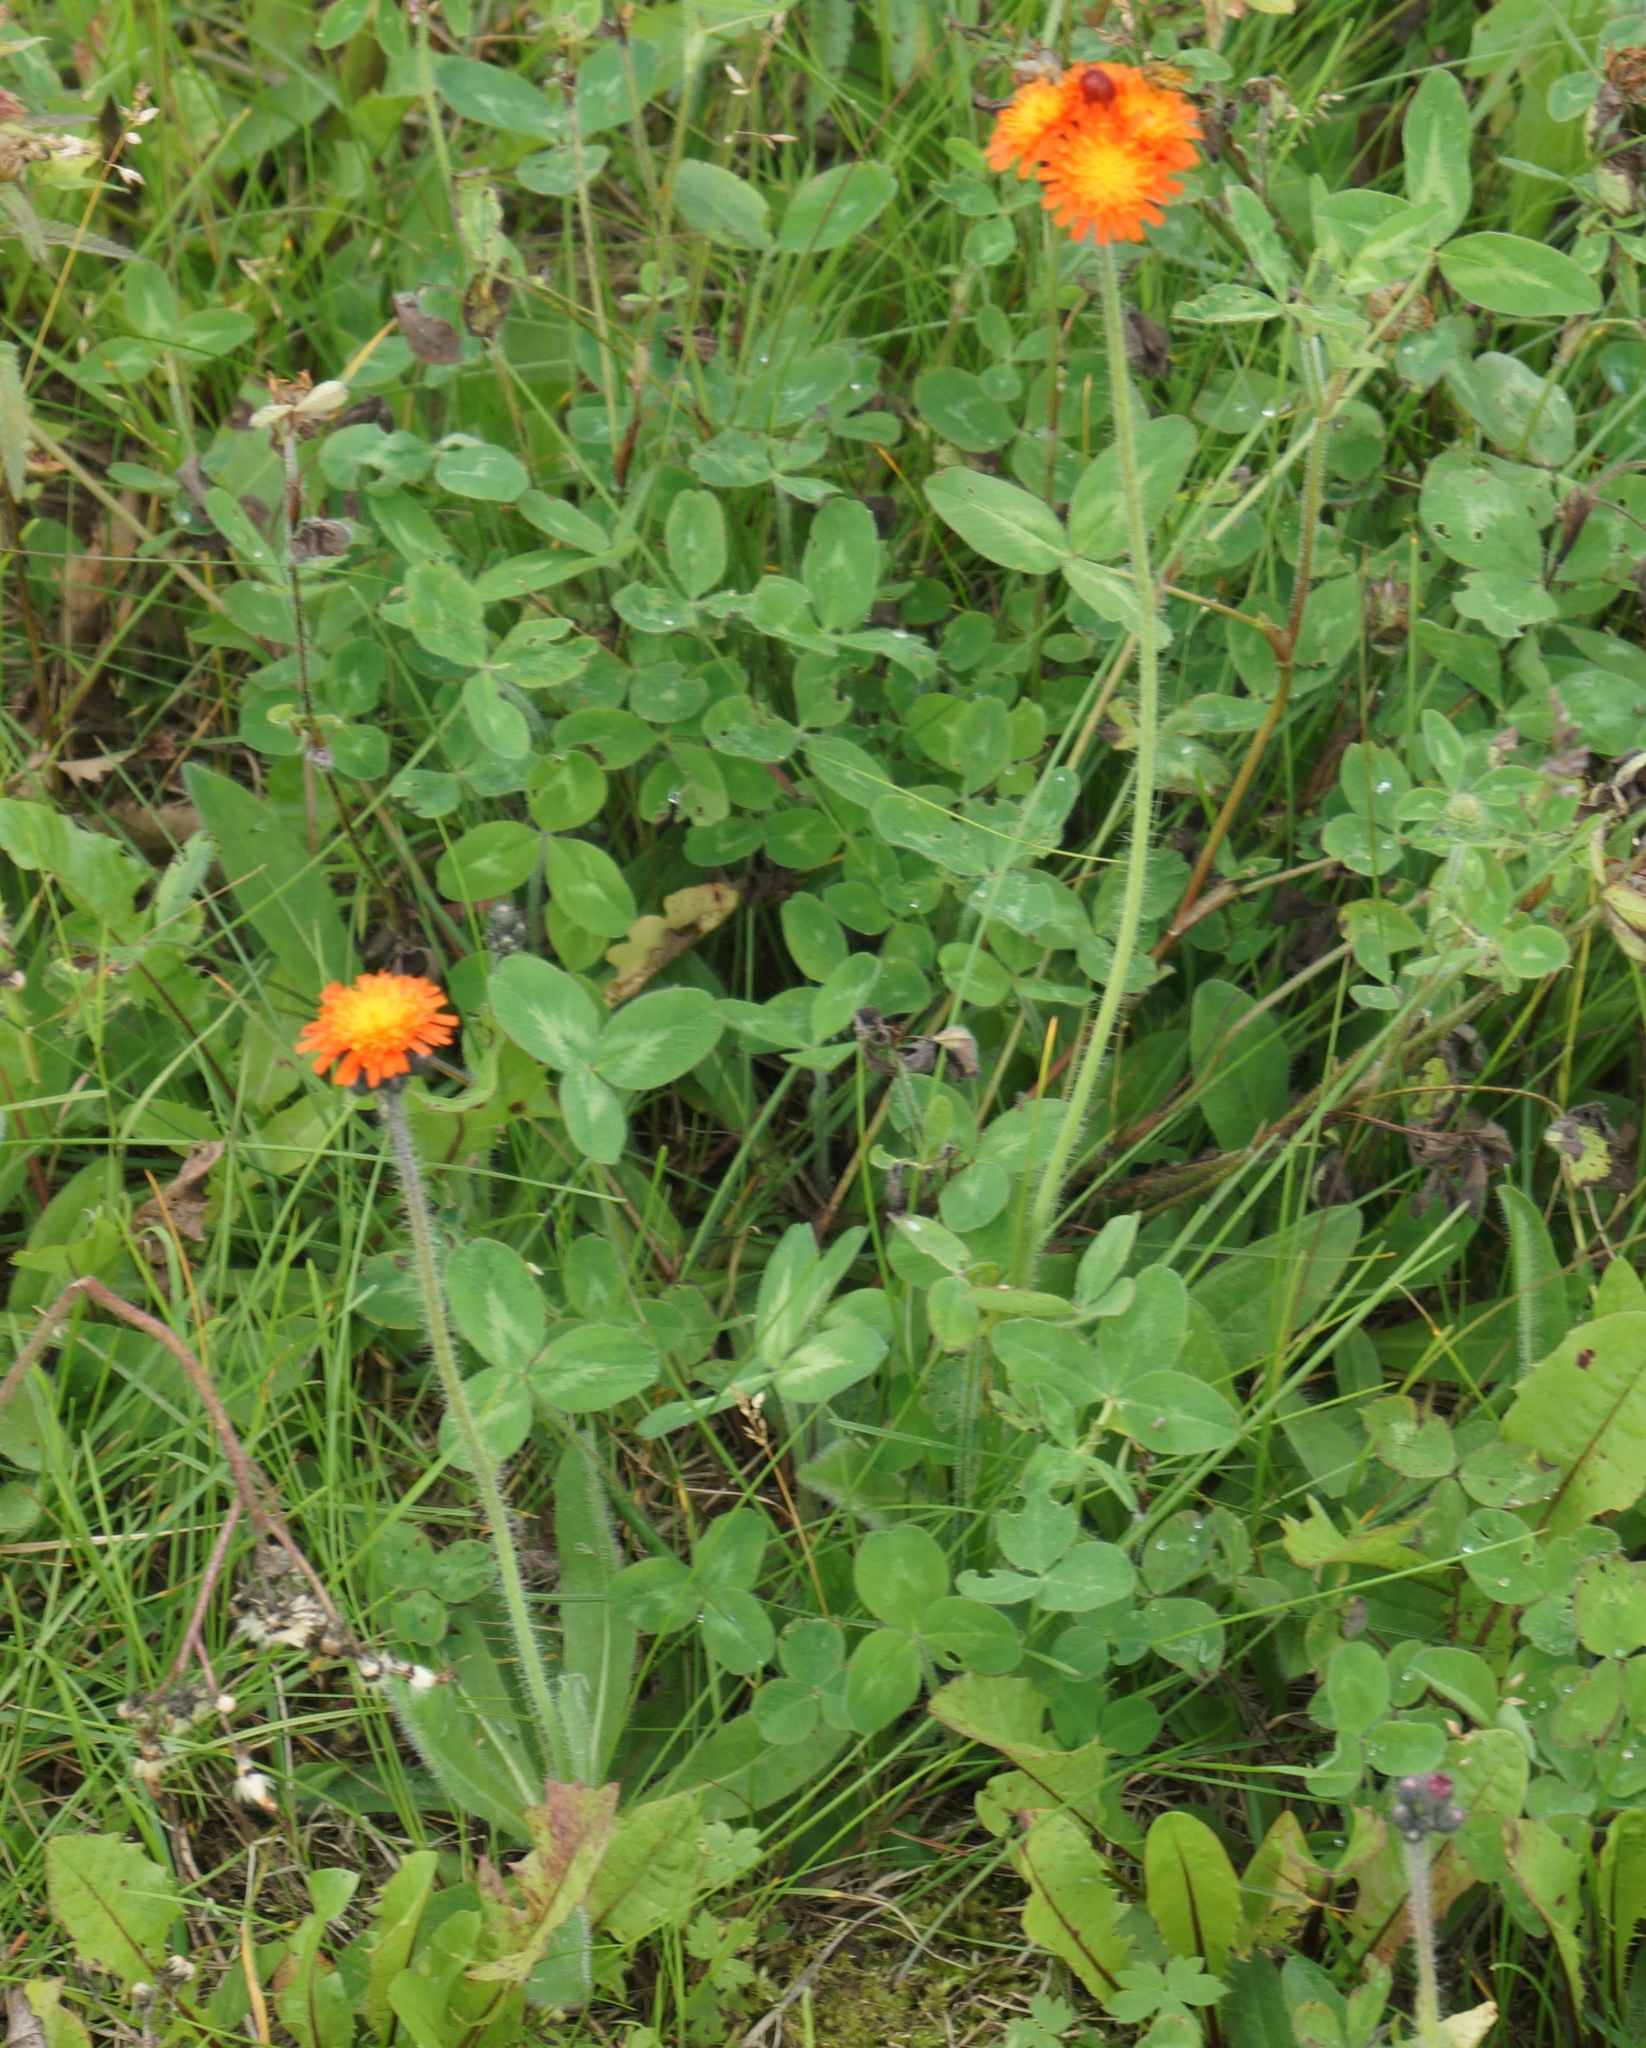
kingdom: Plantae
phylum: Tracheophyta
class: Magnoliopsida
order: Asterales
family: Asteraceae
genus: Pilosella
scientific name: Pilosella aurantiaca
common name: Fox-and-cubs
